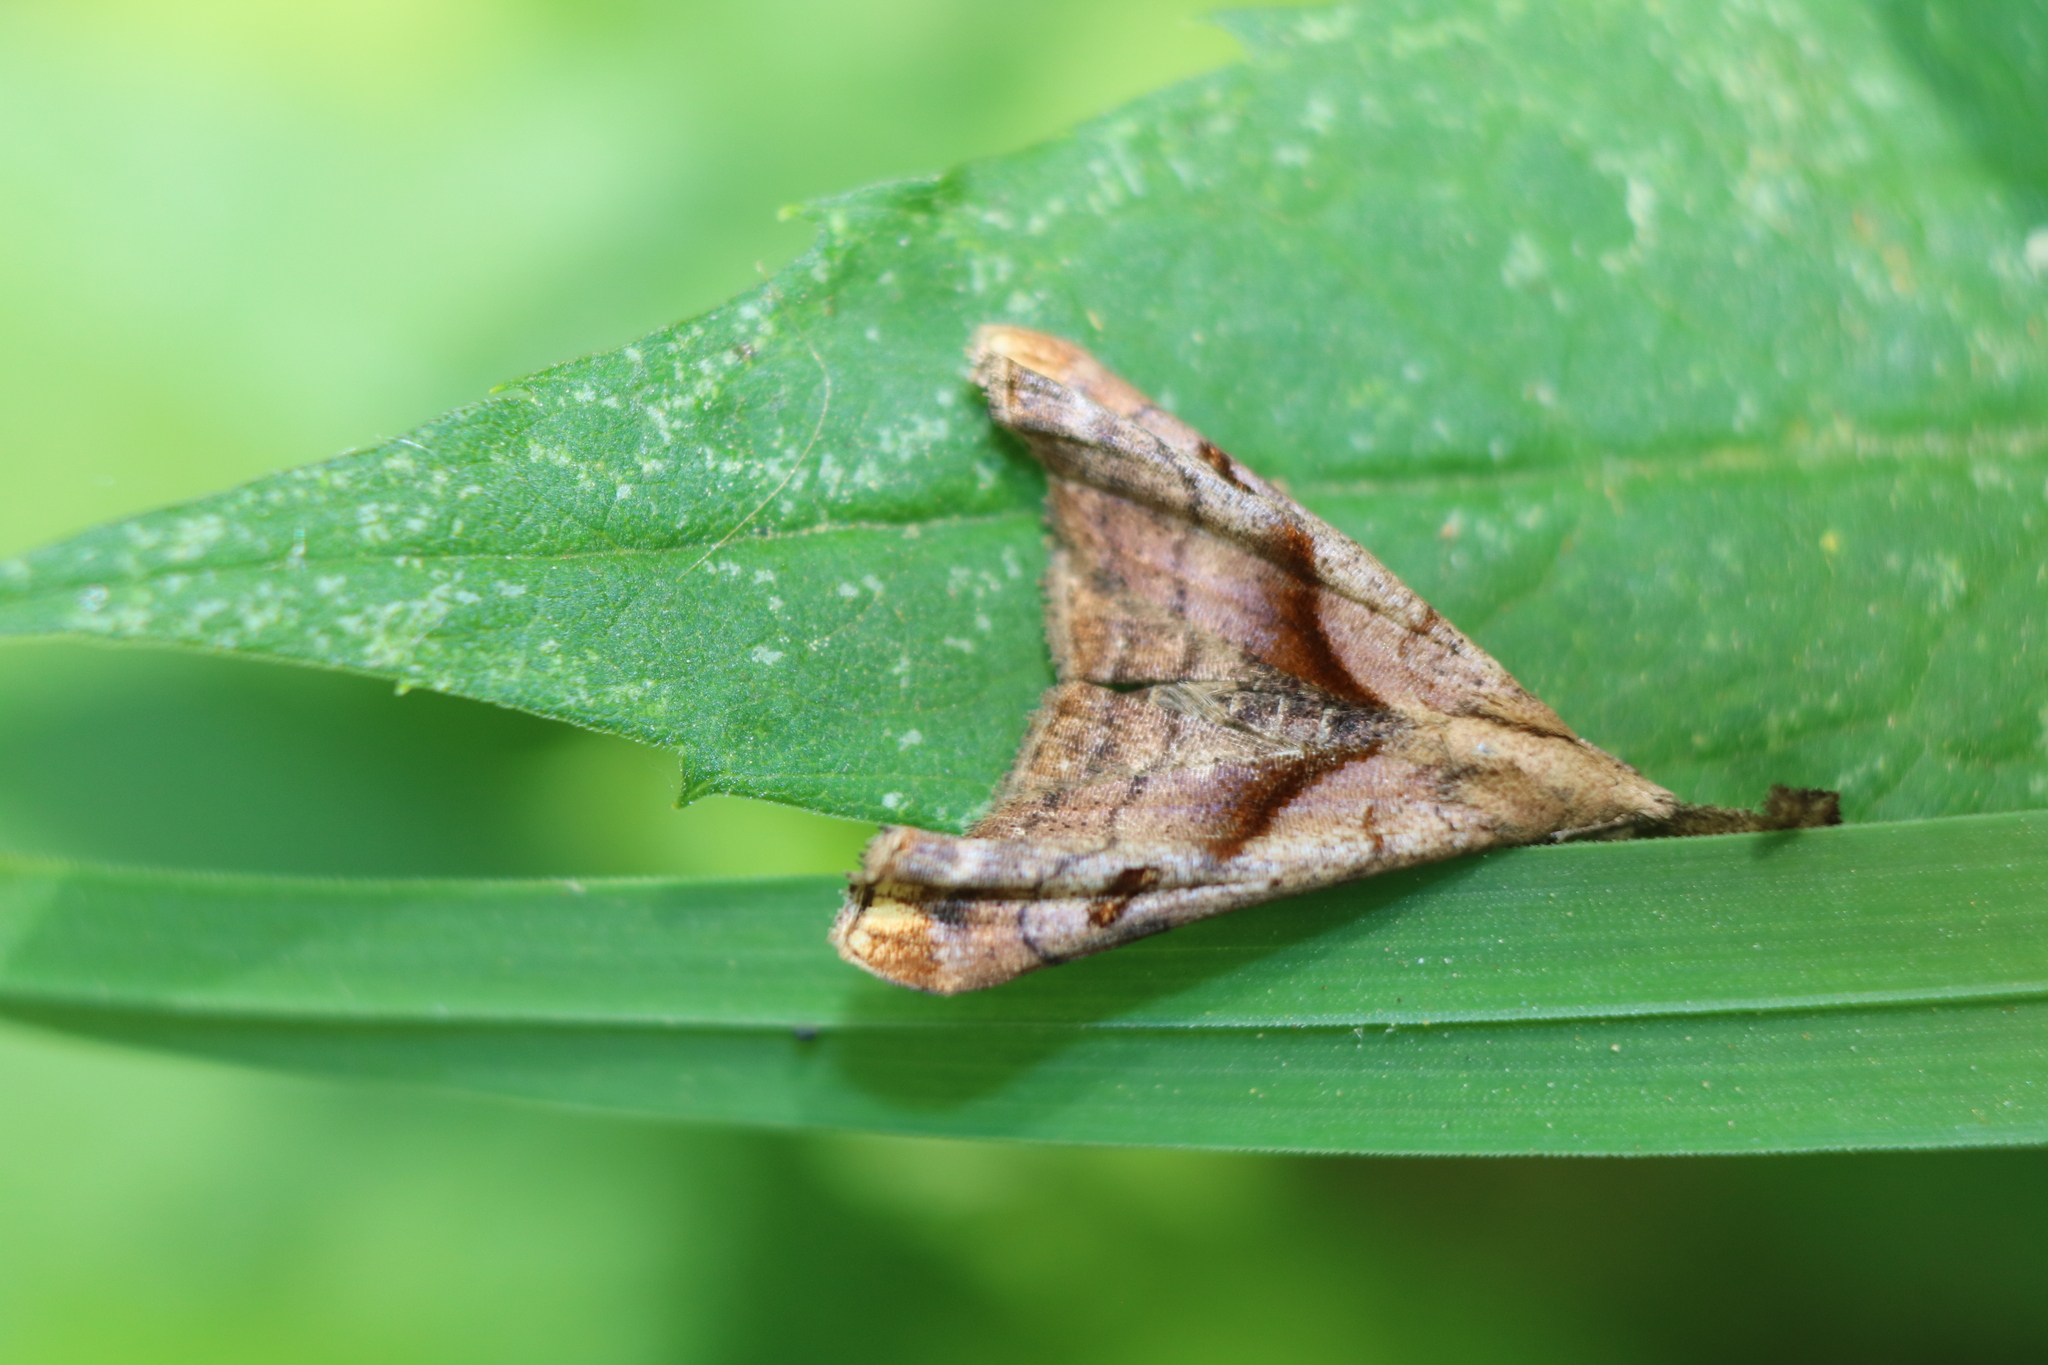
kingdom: Animalia
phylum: Arthropoda
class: Insecta
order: Lepidoptera
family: Erebidae
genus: Palthis
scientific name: Palthis angulalis
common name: Dark-spotted palthis moth
